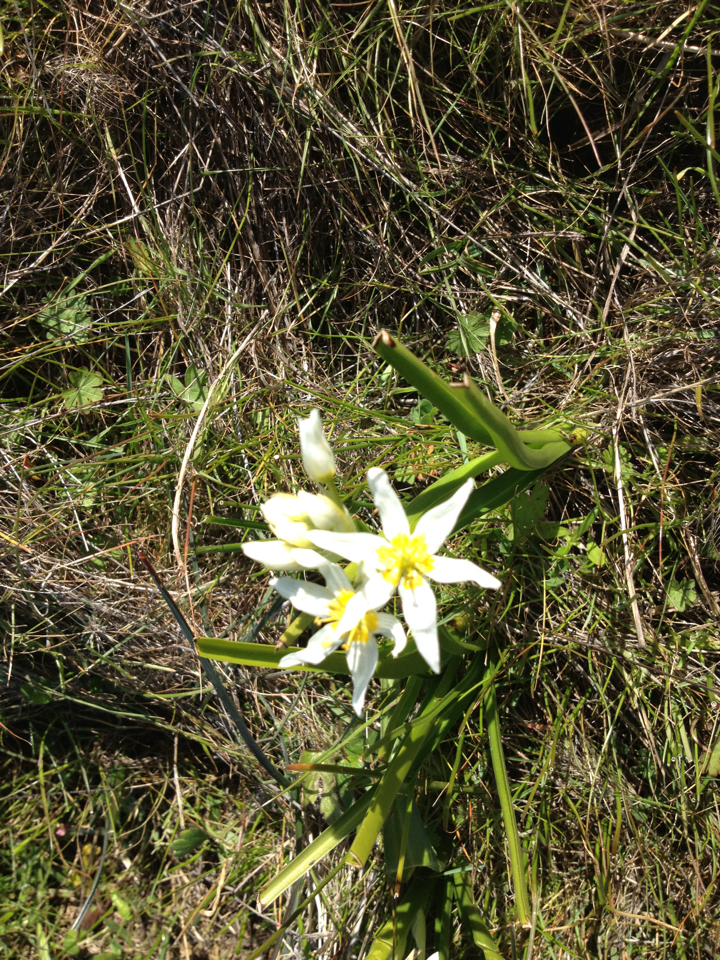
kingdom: Plantae
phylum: Tracheophyta
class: Liliopsida
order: Liliales
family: Melanthiaceae
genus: Toxicoscordion
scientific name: Toxicoscordion fremontii
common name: Fremont's death camas
